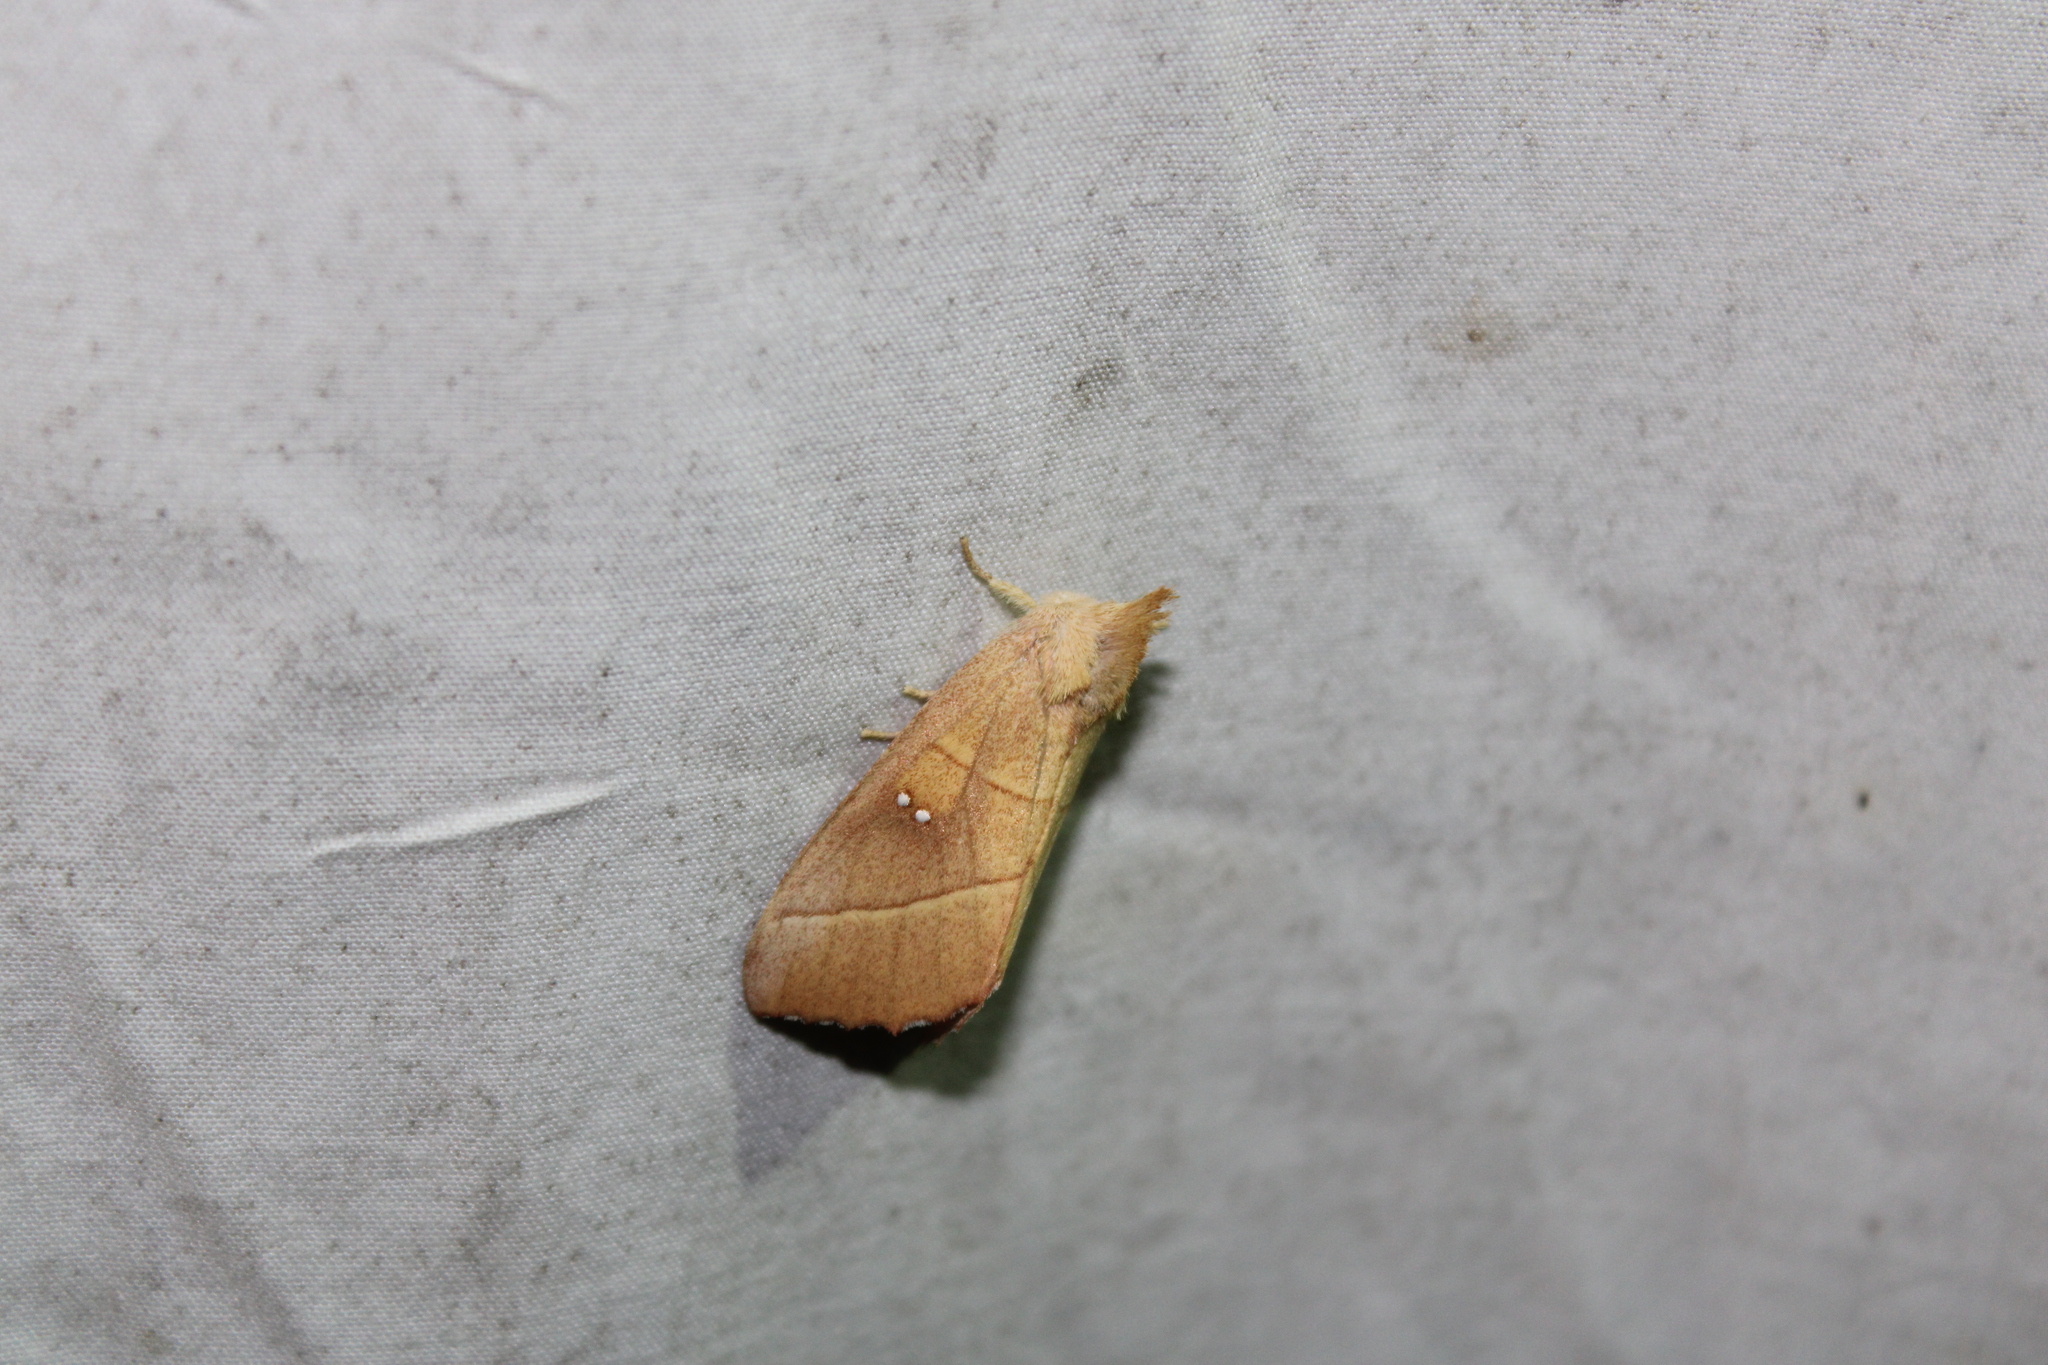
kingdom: Animalia
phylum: Arthropoda
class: Insecta
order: Lepidoptera
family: Notodontidae
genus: Nadata
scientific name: Nadata gibbosa
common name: White-dotted prominent
